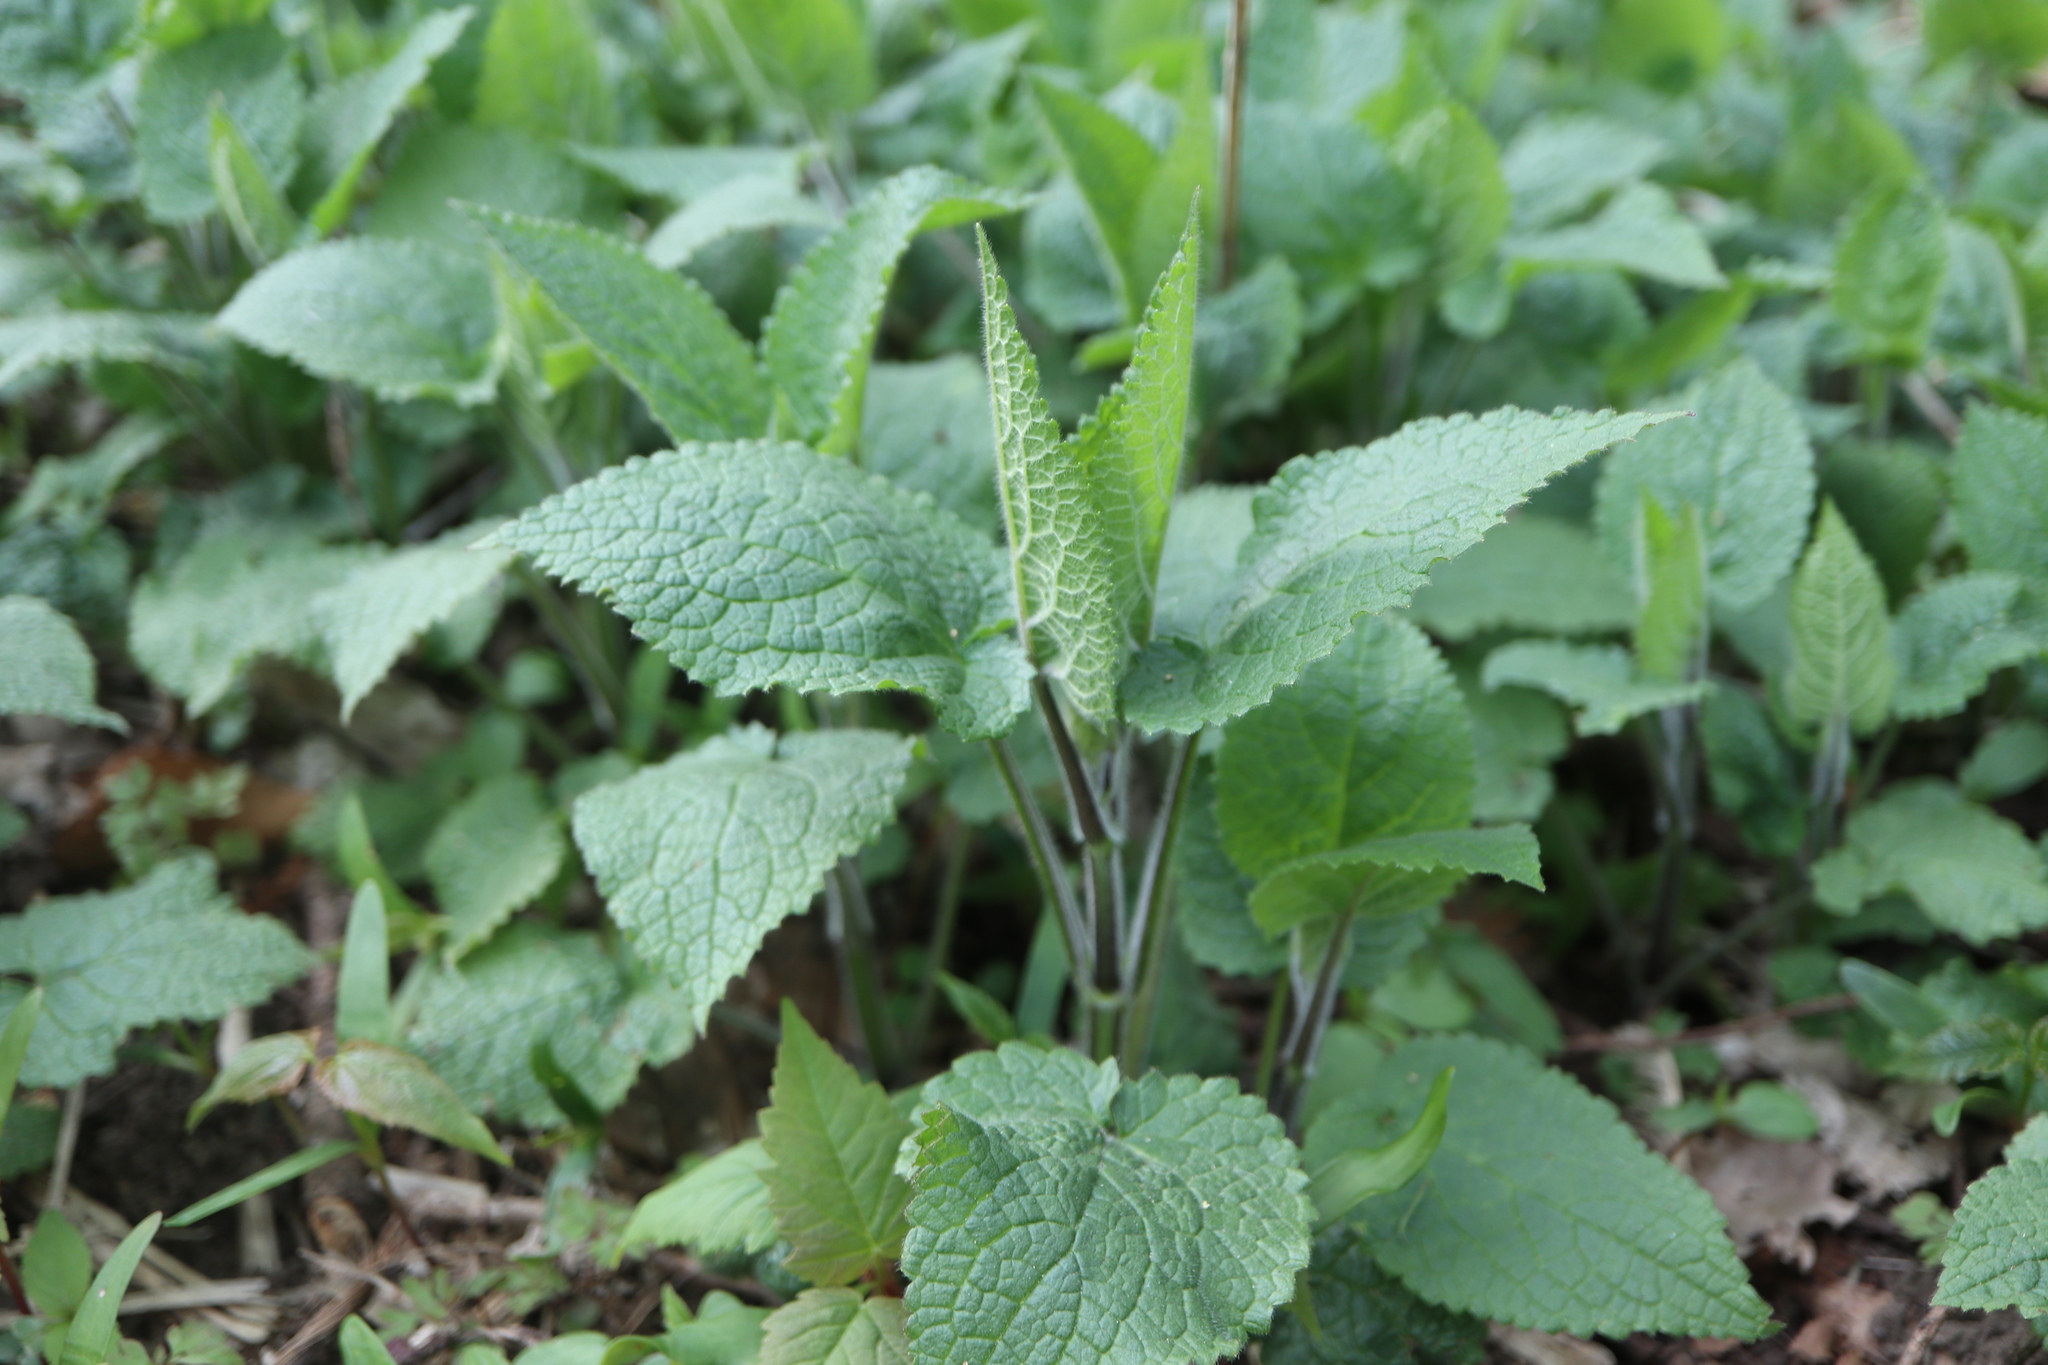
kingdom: Plantae
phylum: Tracheophyta
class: Magnoliopsida
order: Lamiales
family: Lamiaceae
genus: Stachys
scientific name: Stachys sylvatica
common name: Hedge woundwort
